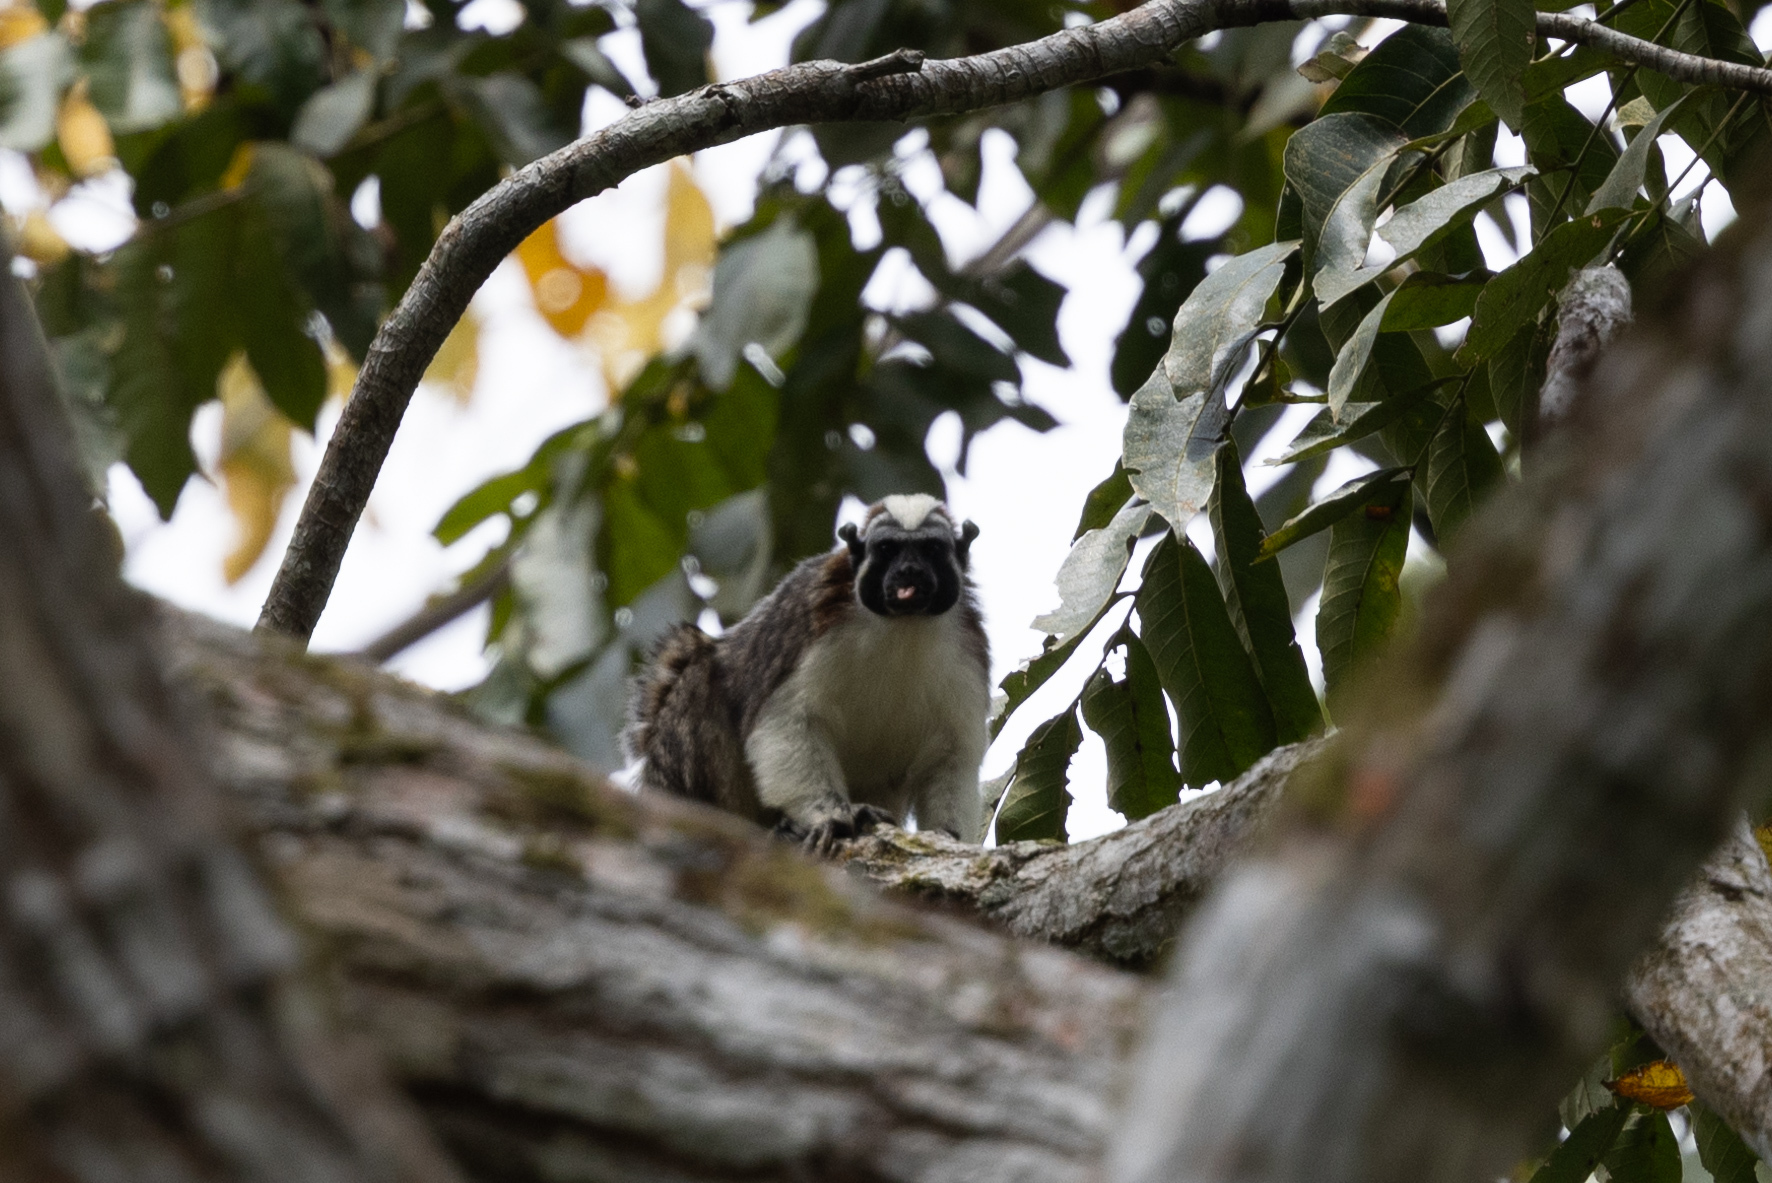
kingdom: Animalia
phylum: Chordata
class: Mammalia
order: Primates
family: Callitrichidae
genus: Saguinus
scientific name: Saguinus geoffroyi
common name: Geoffroy s tamarin
